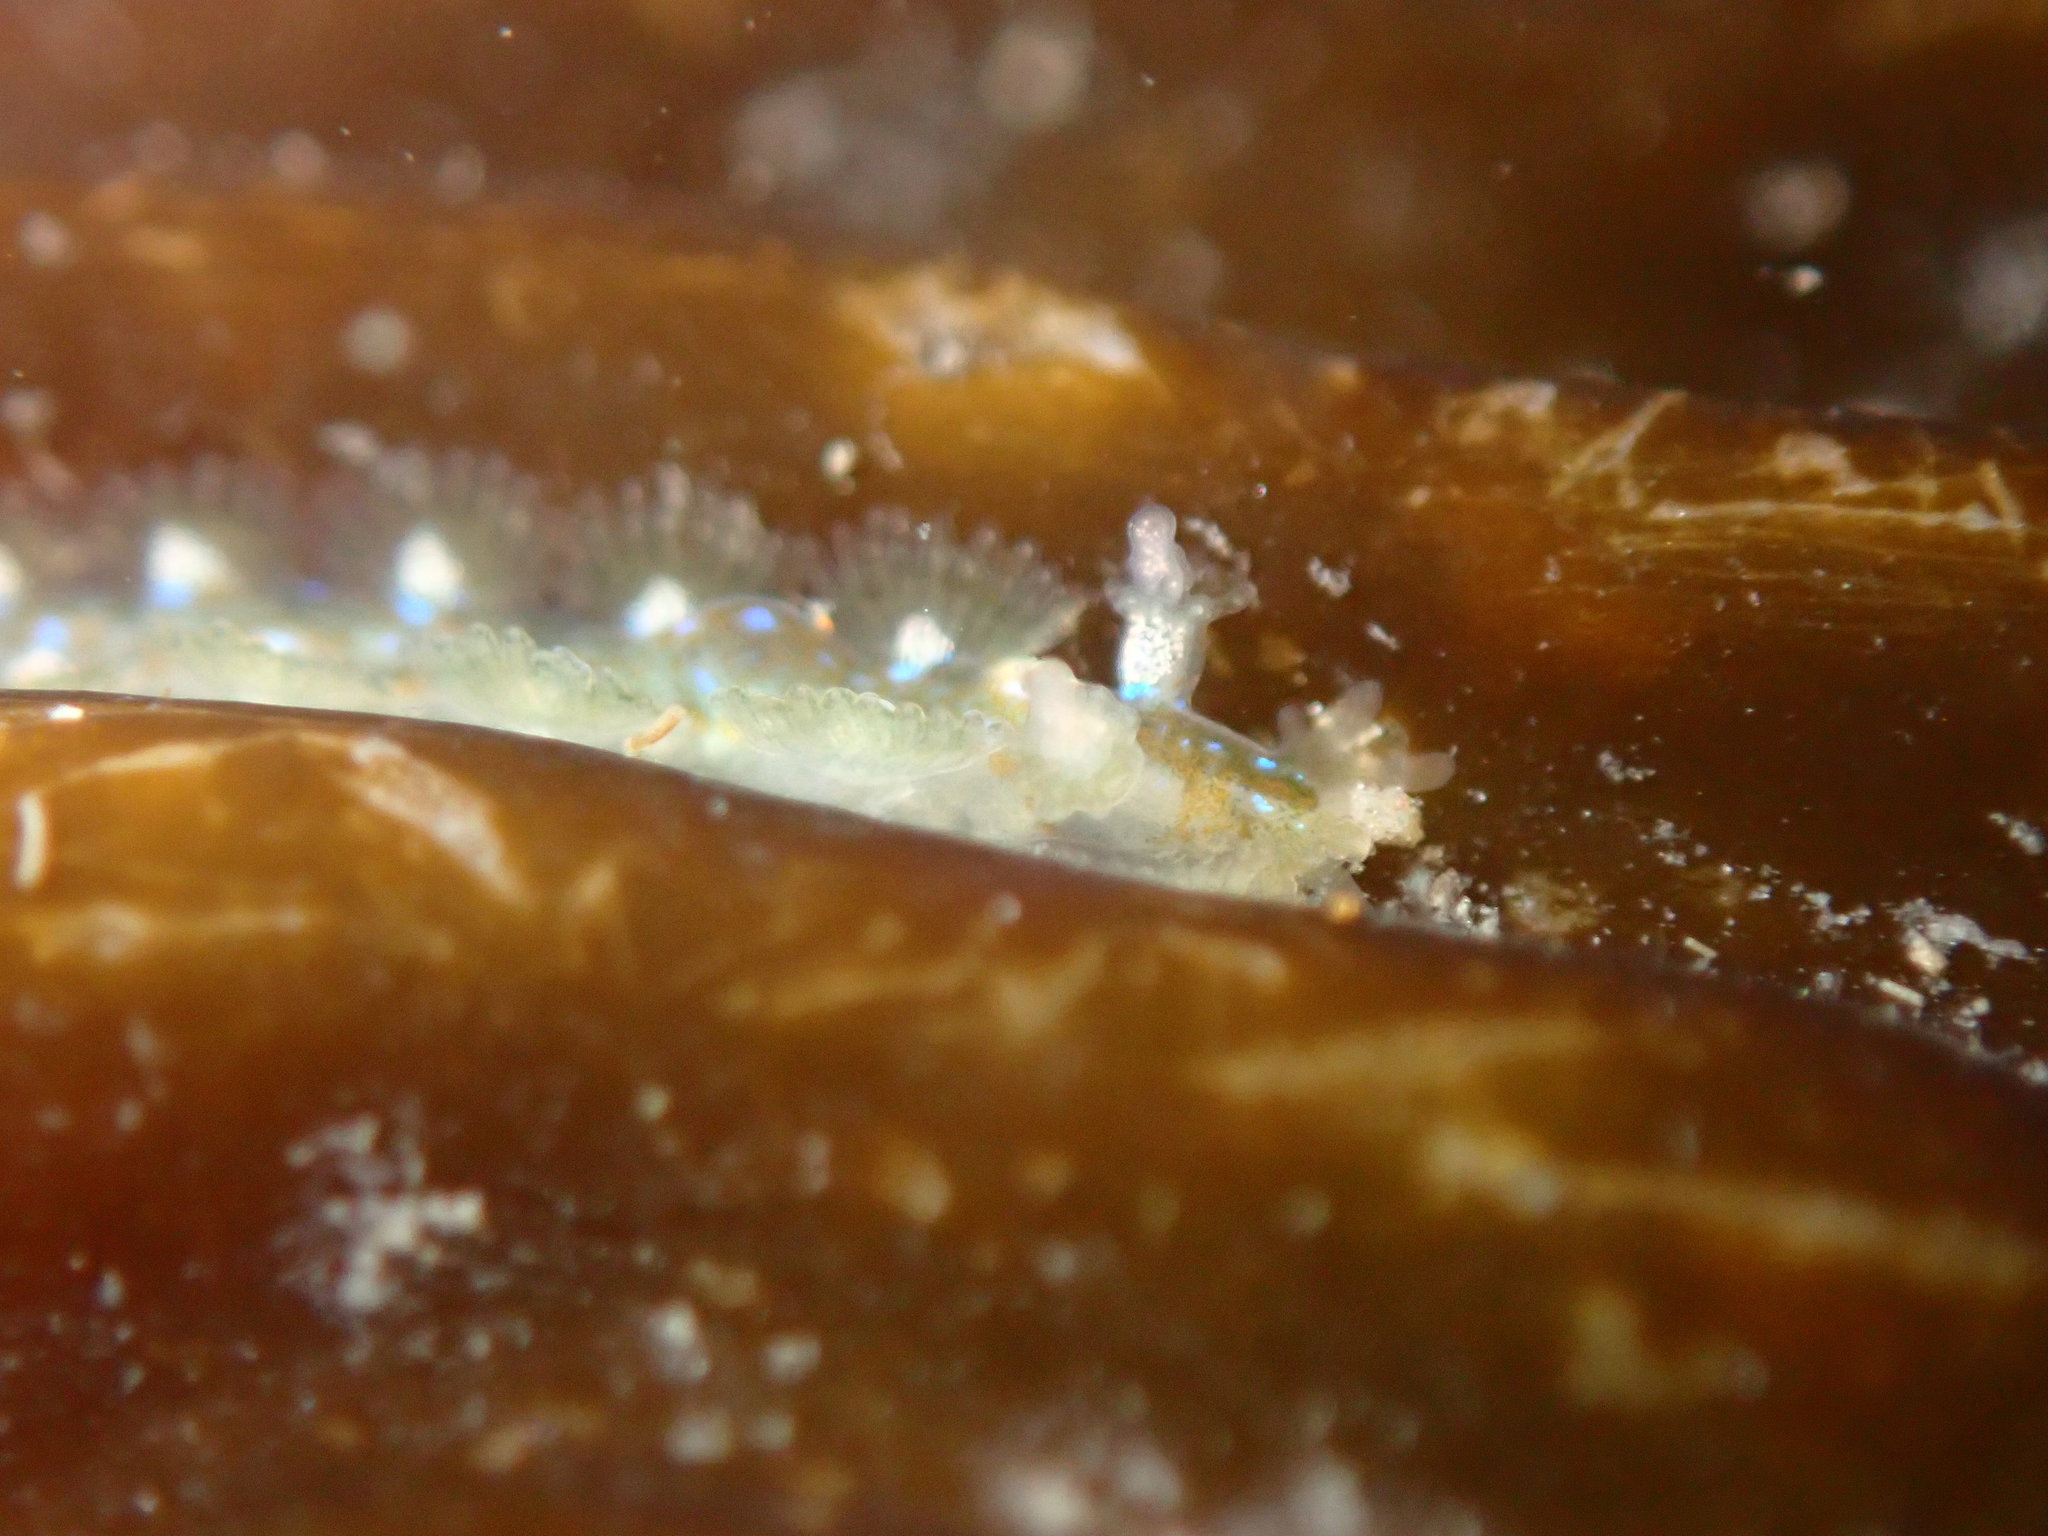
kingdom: Animalia
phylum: Mollusca
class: Gastropoda
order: Nudibranchia
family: Hancockiidae
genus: Hancockia
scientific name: Hancockia californica
